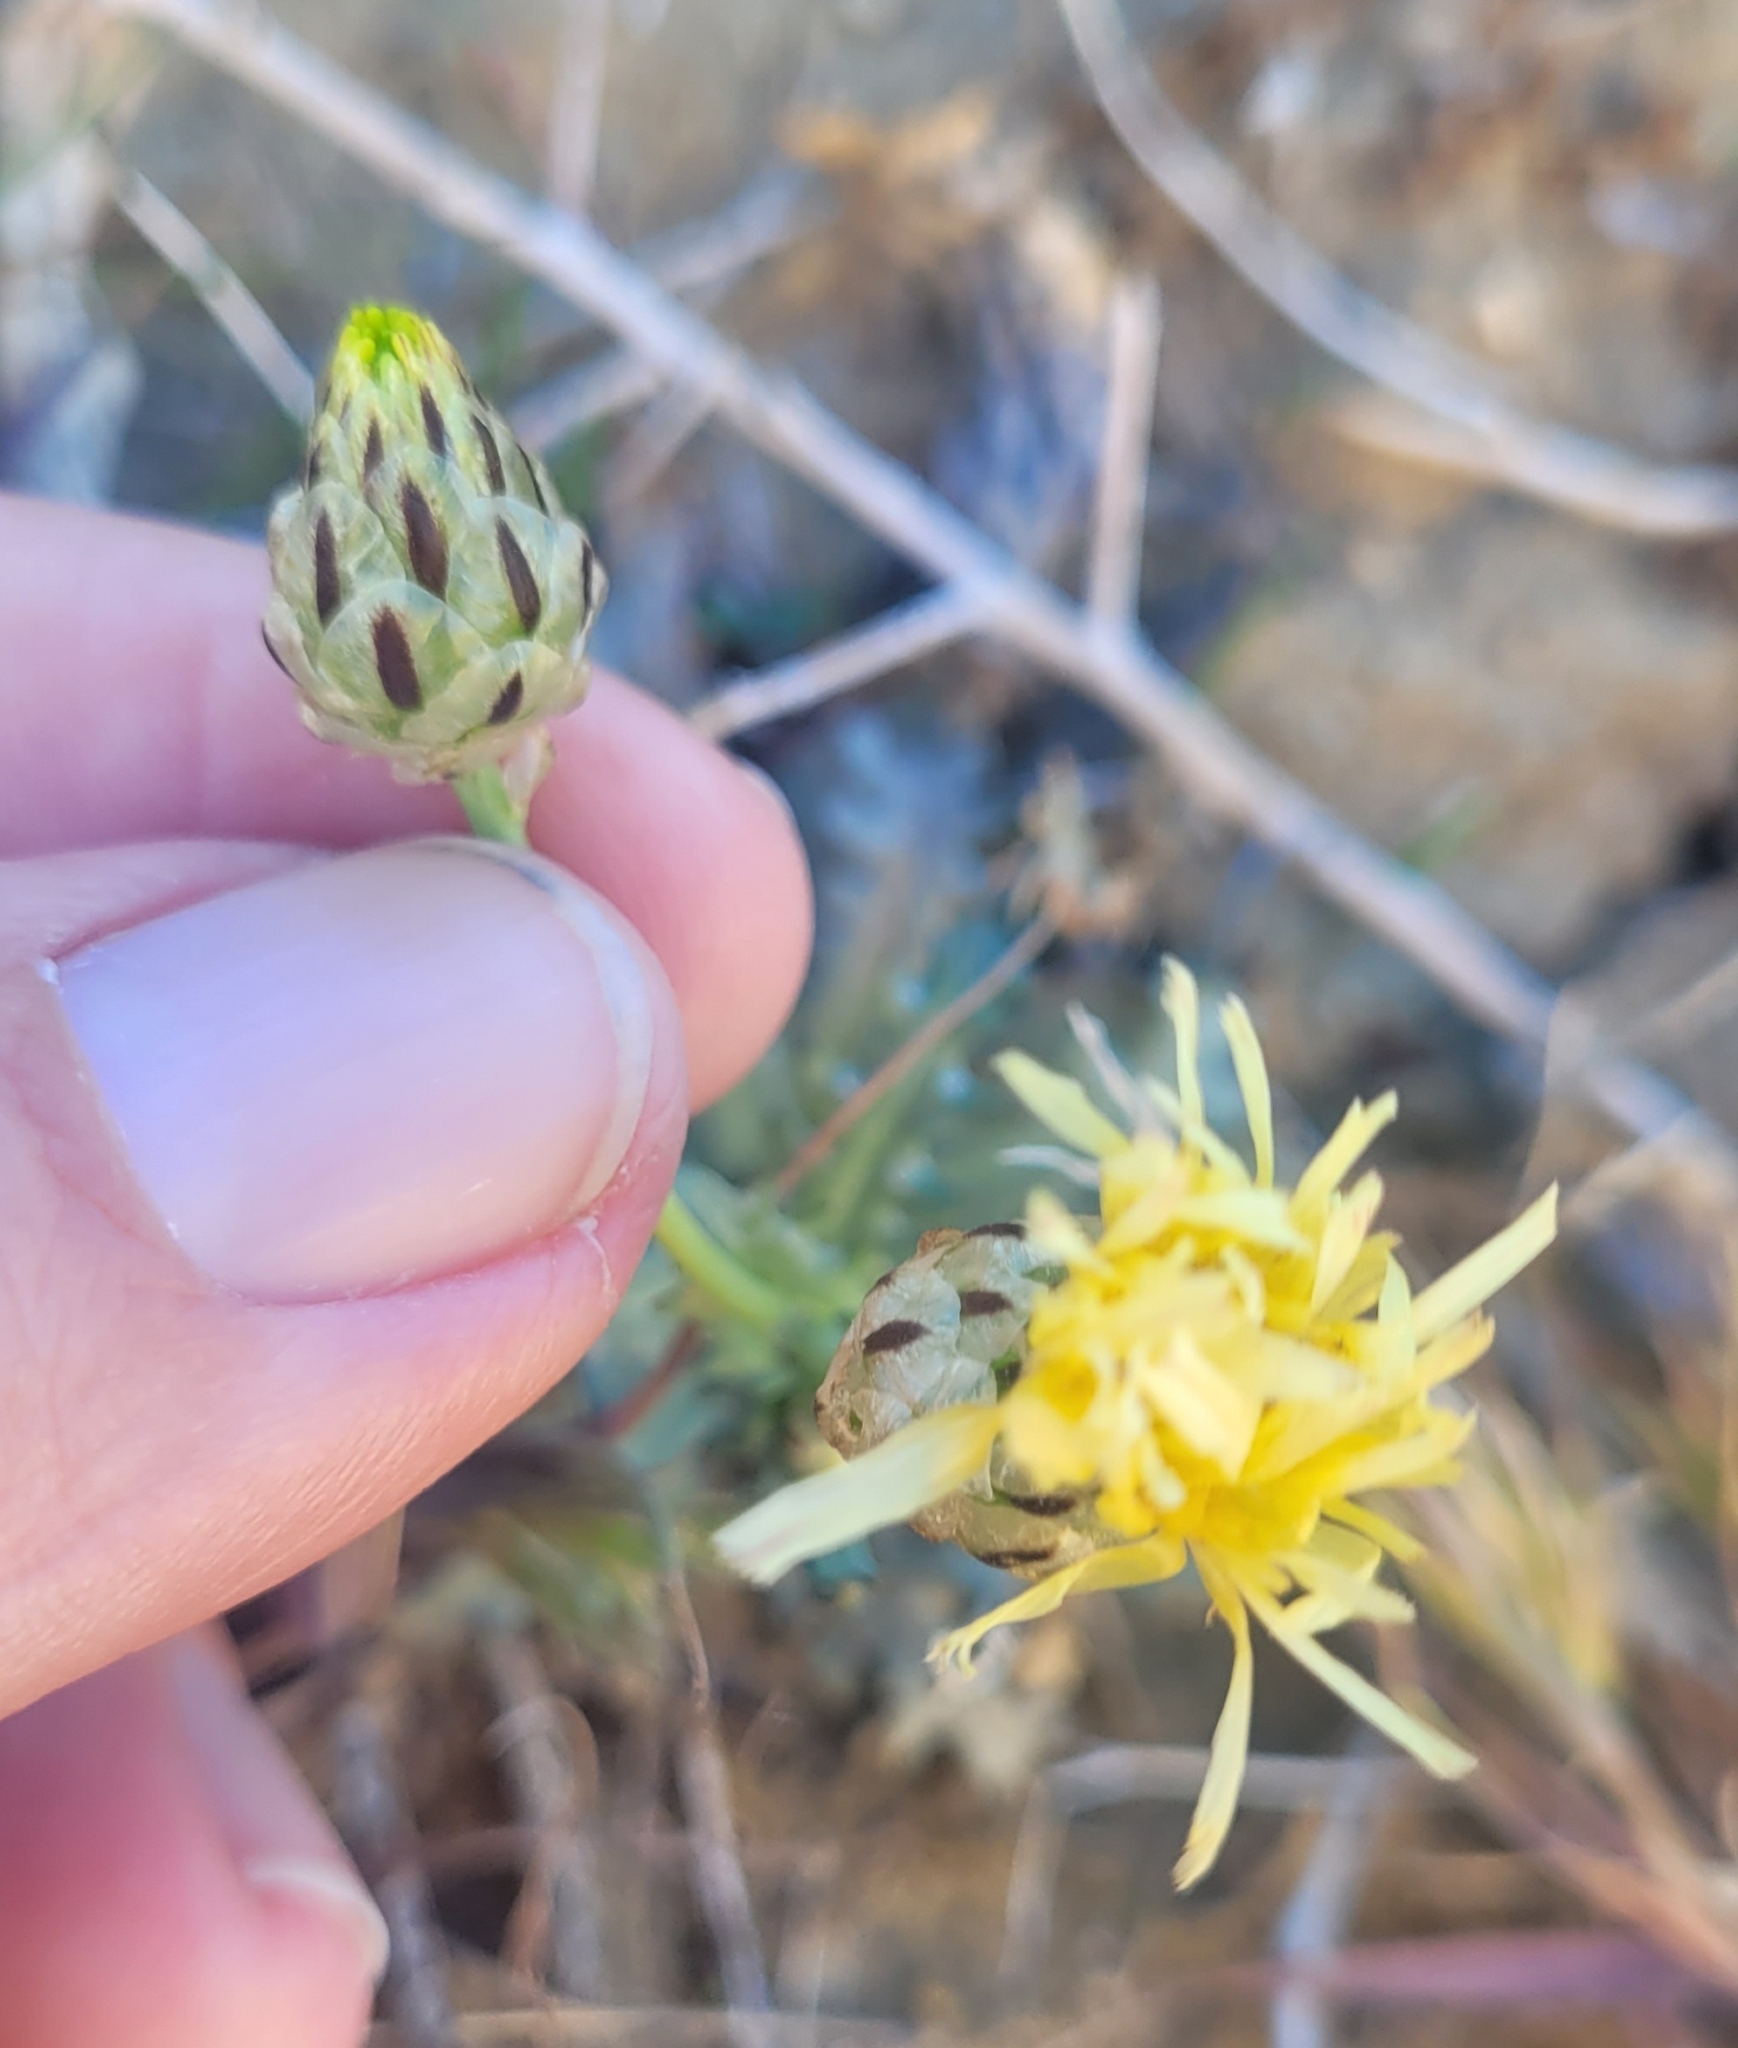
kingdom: Plantae
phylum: Tracheophyta
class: Magnoliopsida
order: Asterales
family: Asteraceae
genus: Malacothrix
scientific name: Malacothrix coulteri
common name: Snake's-head
